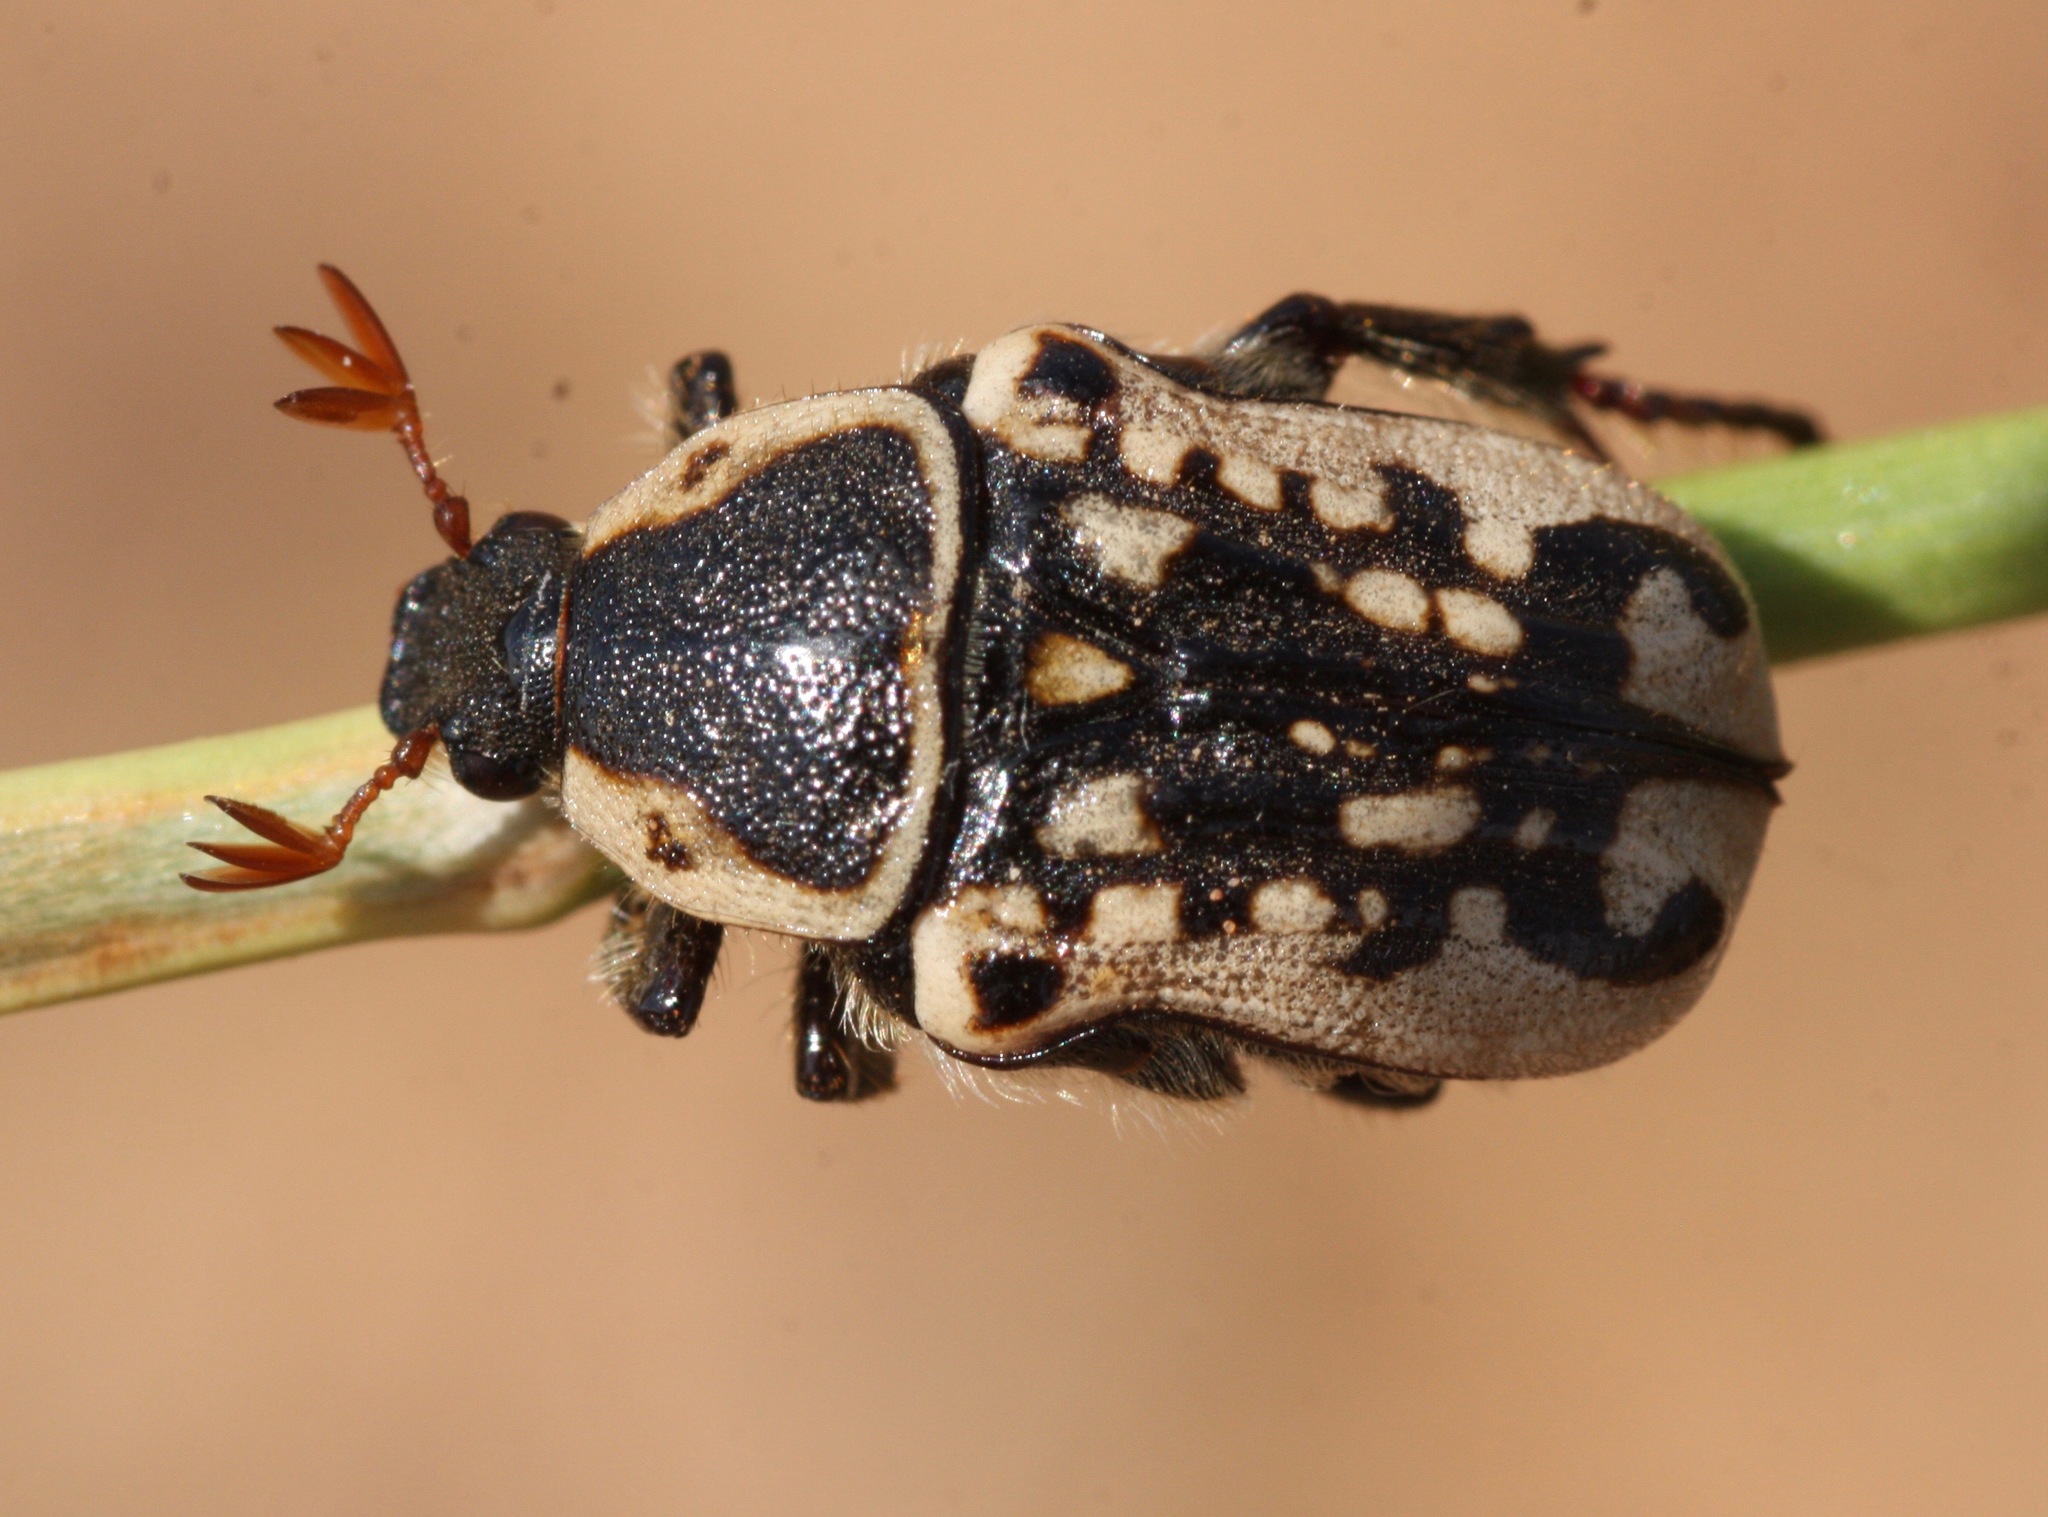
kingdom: Animalia
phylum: Arthropoda
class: Insecta
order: Coleoptera
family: Scarabaeidae
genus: Euphoria
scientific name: Euphoria kernii
